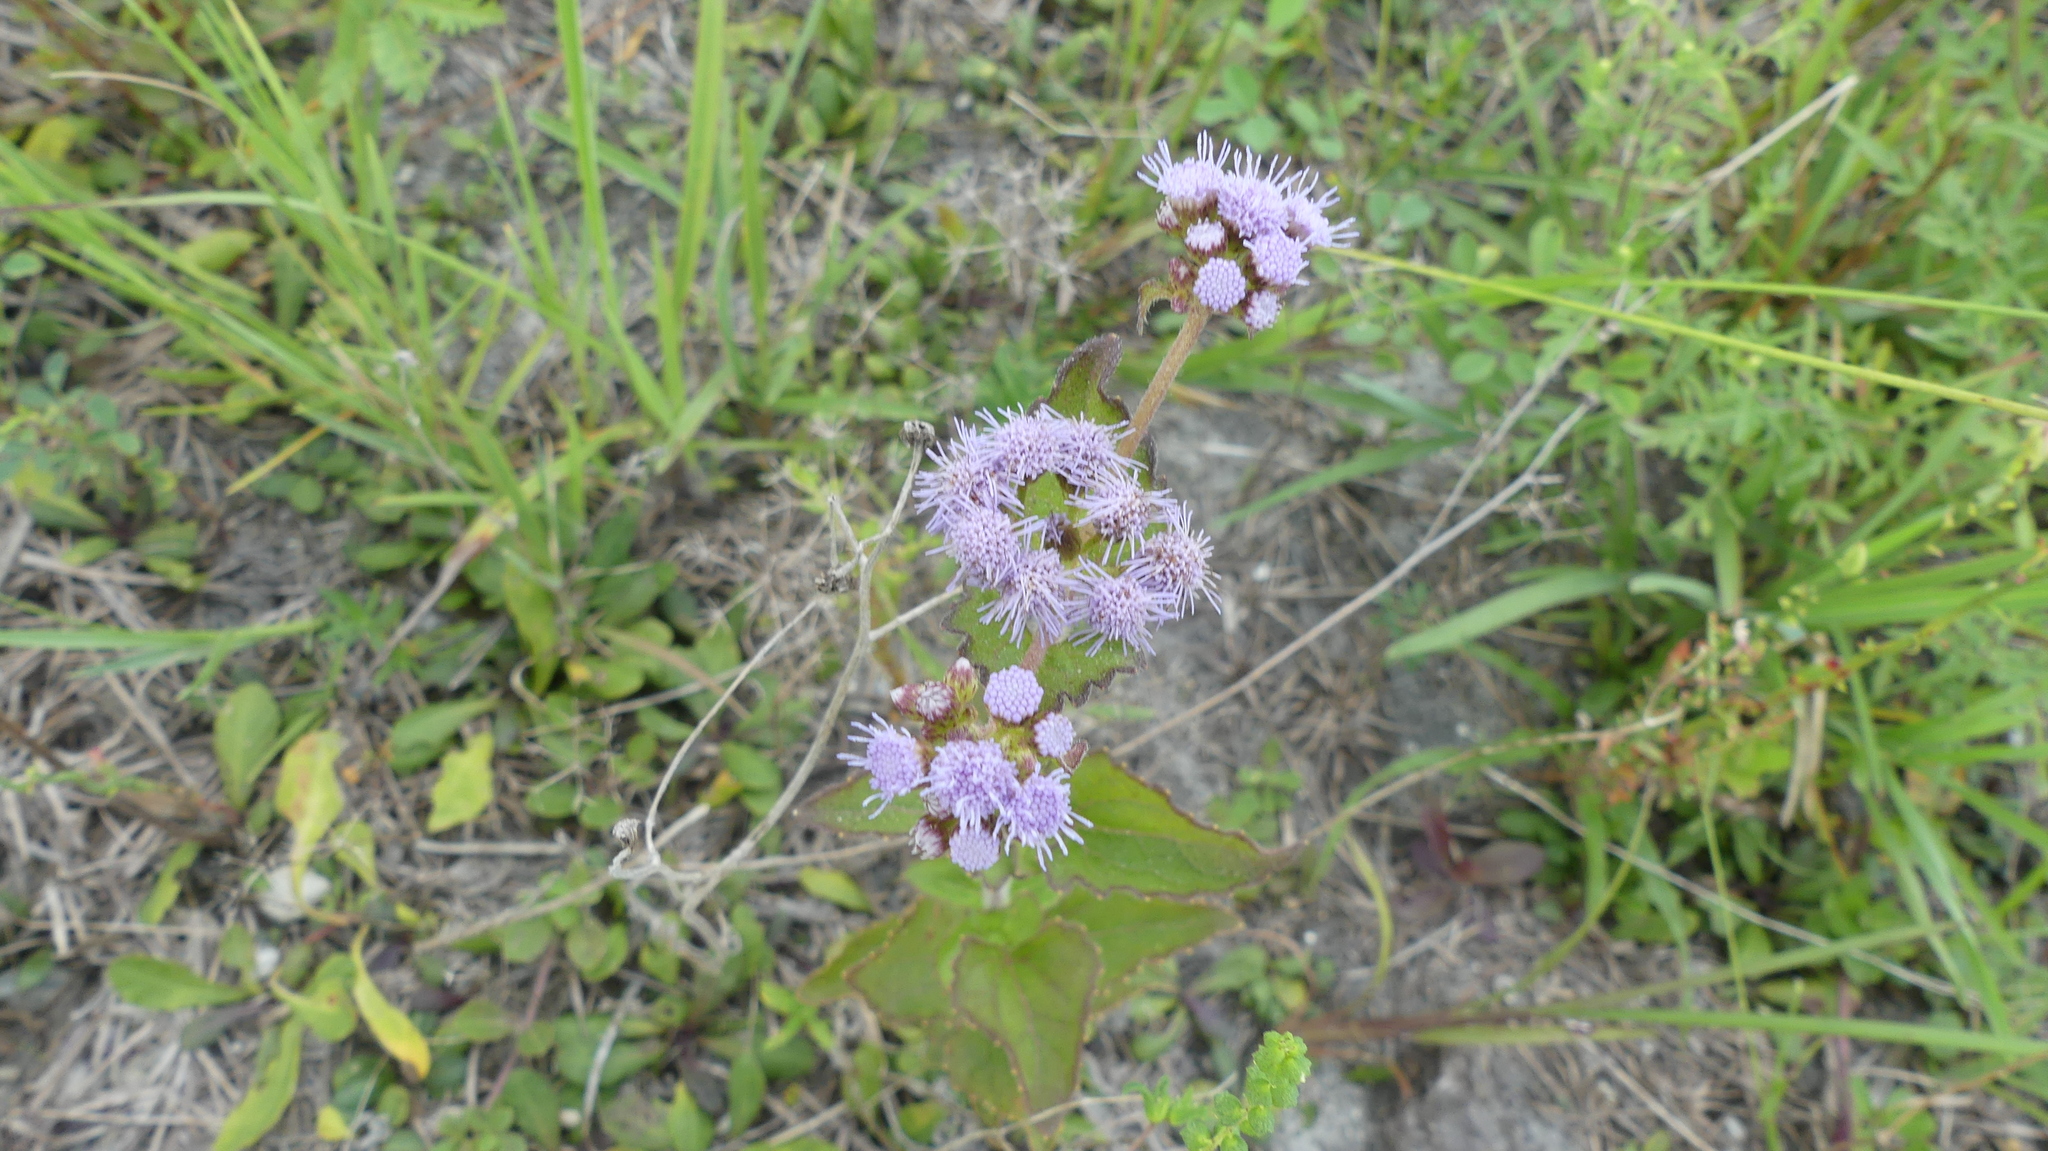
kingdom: Plantae
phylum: Tracheophyta
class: Magnoliopsida
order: Asterales
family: Asteraceae
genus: Conoclinium
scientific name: Conoclinium coelestinum
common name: Blue mistflower
